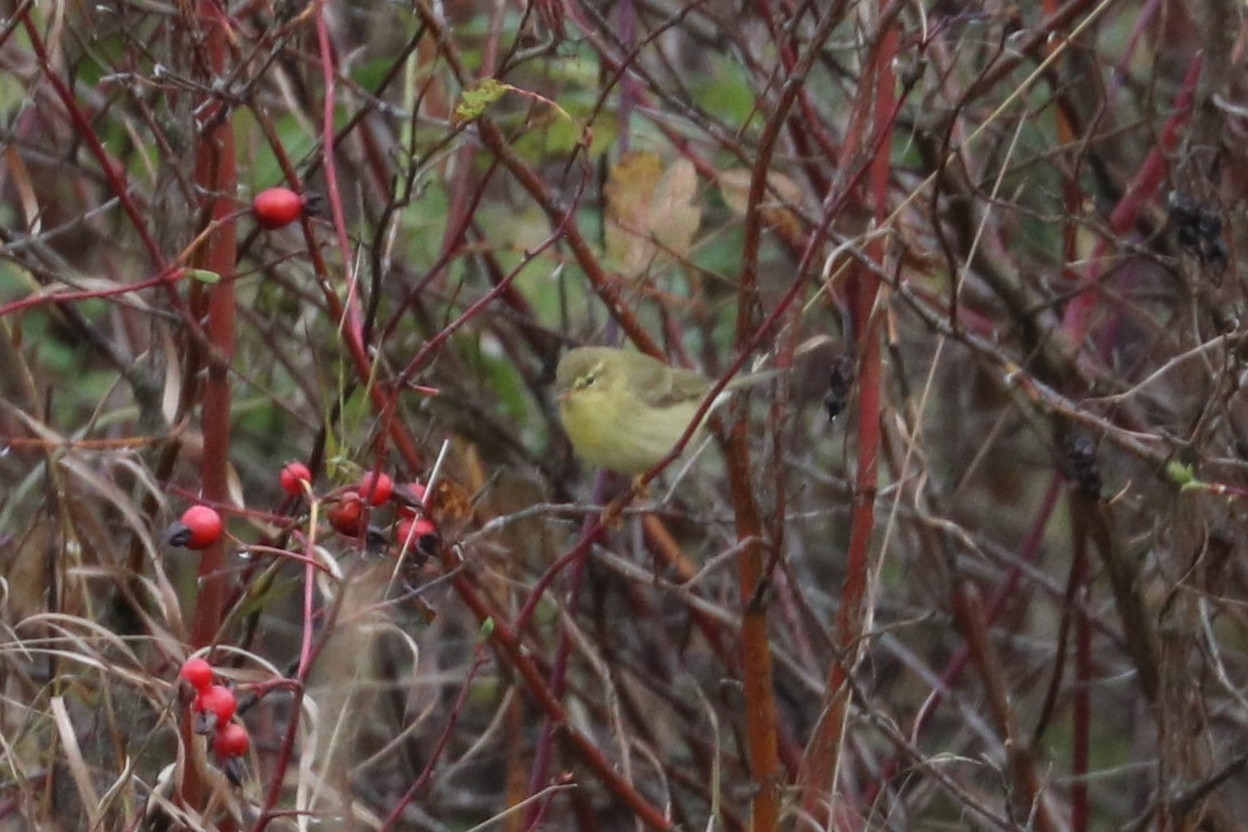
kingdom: Animalia
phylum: Chordata
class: Aves
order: Passeriformes
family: Phylloscopidae
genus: Phylloscopus
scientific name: Phylloscopus trochilus
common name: Willow warbler
